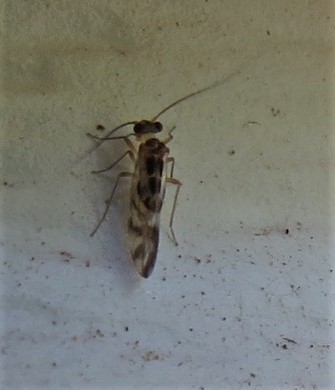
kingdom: Animalia
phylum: Arthropoda
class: Insecta
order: Psocodea
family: Stenopsocidae
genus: Graphopsocus
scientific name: Graphopsocus cruciatus
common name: Lizard bark louse
